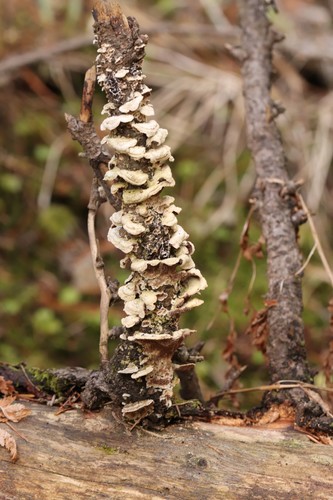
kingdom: Fungi
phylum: Basidiomycota
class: Agaricomycetes
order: Hymenochaetales
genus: Trichaptum
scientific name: Trichaptum fuscoviolaceum
